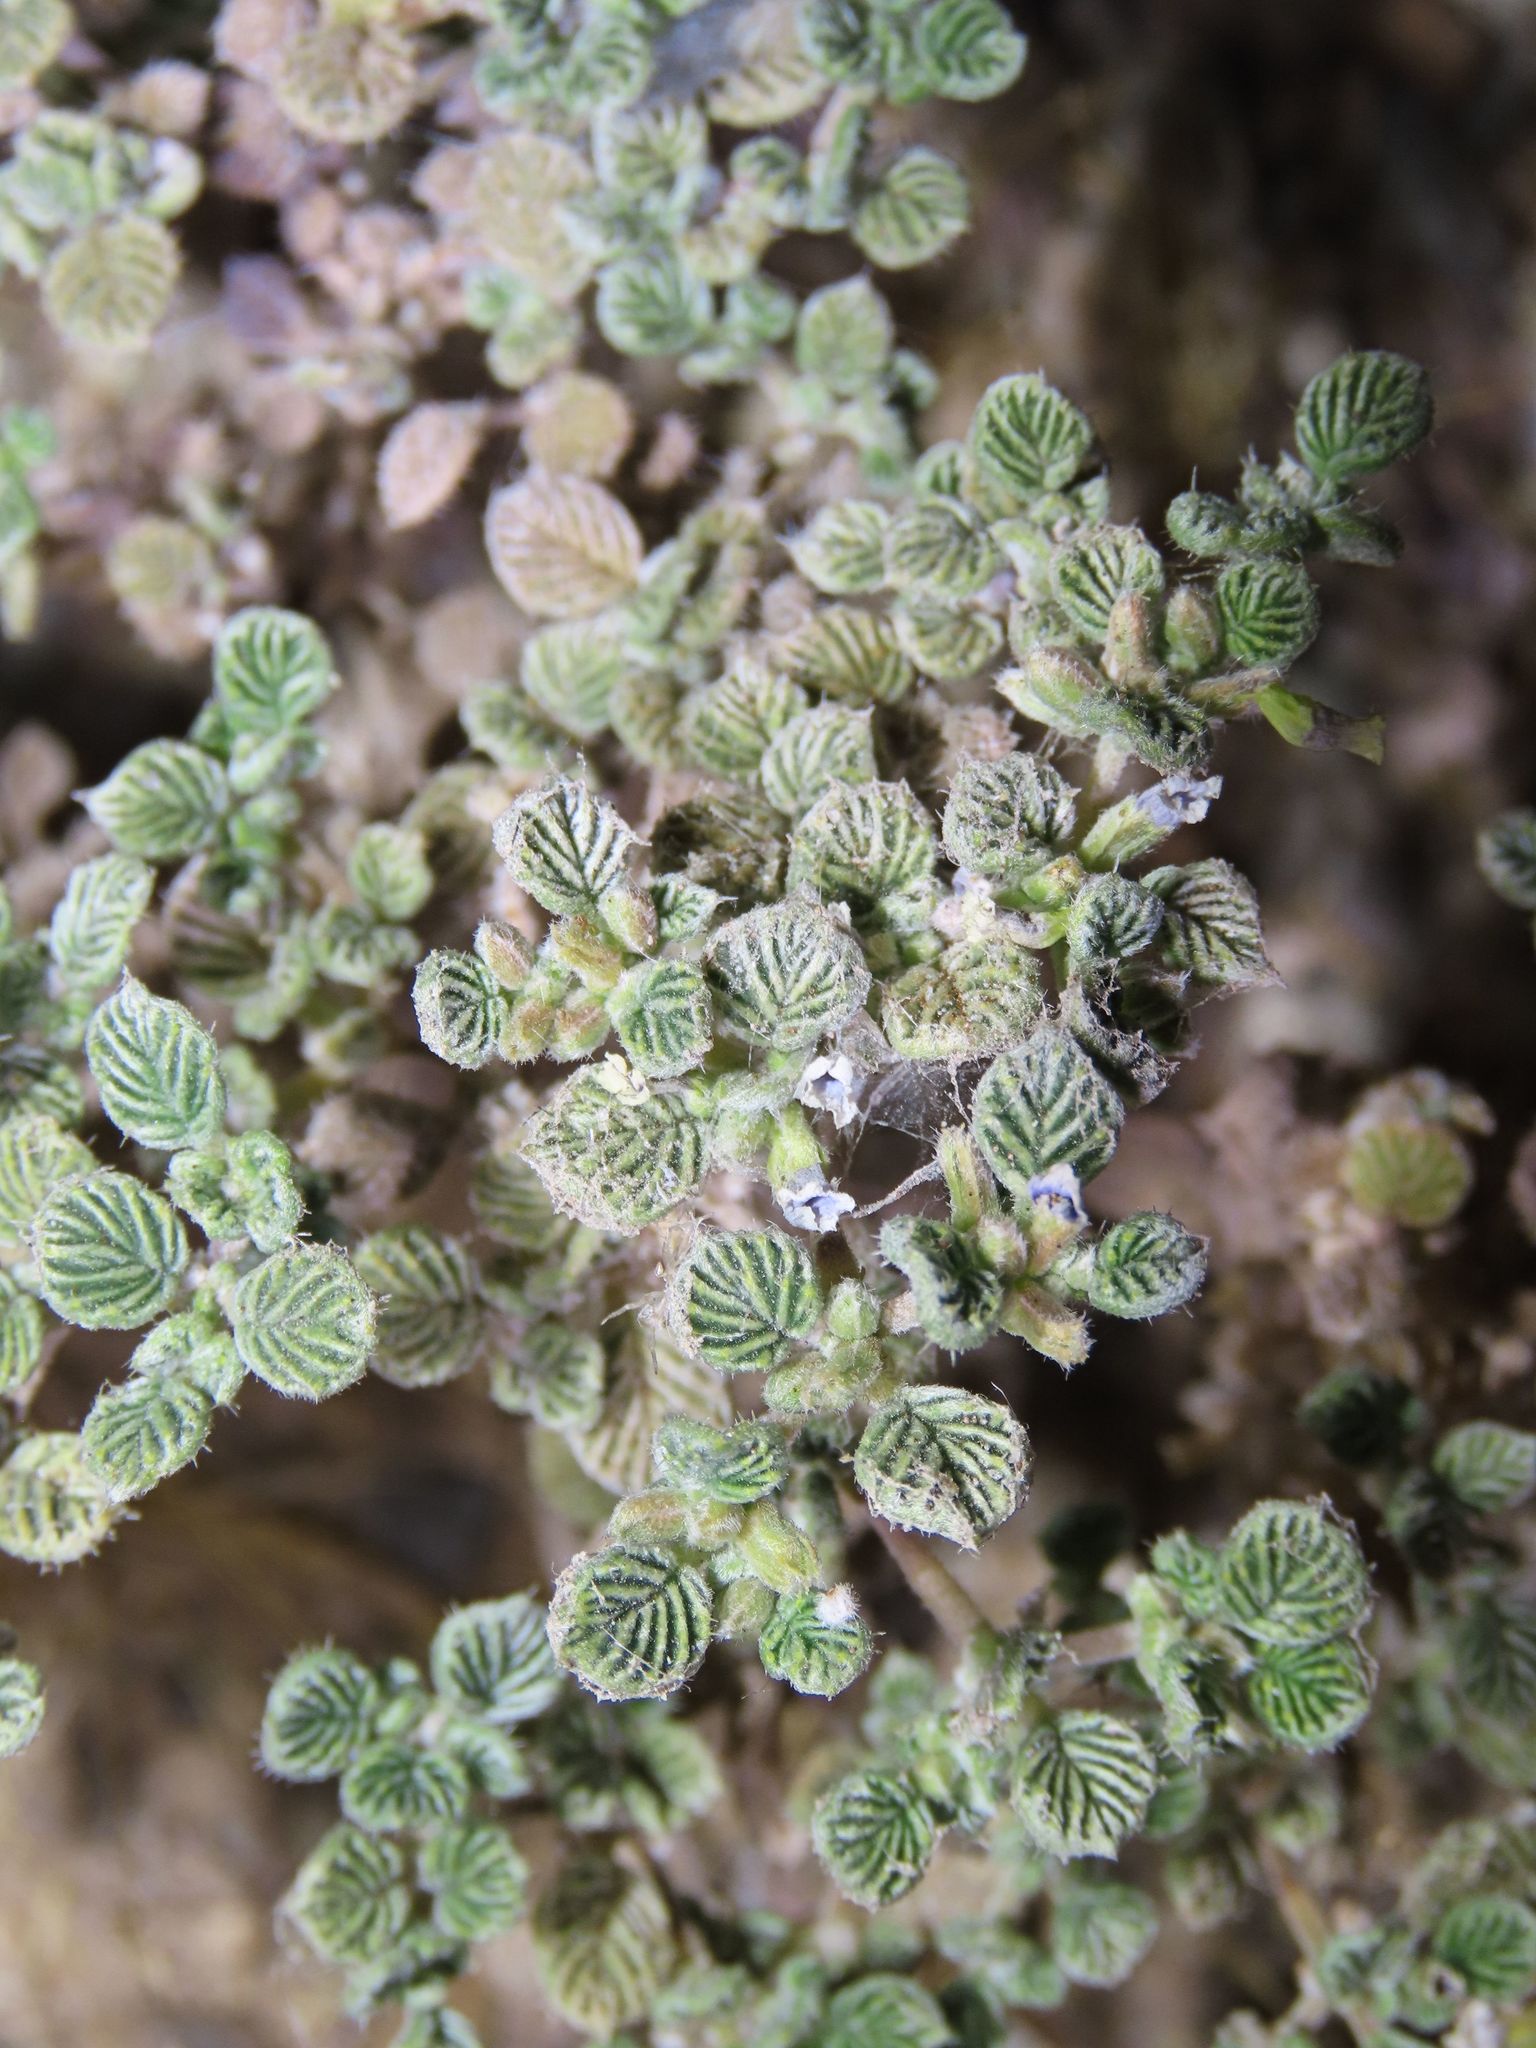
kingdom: Plantae
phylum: Tracheophyta
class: Magnoliopsida
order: Boraginales
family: Ehretiaceae
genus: Tiquilia
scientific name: Tiquilia plicata
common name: Fan-leaf tiquilia
